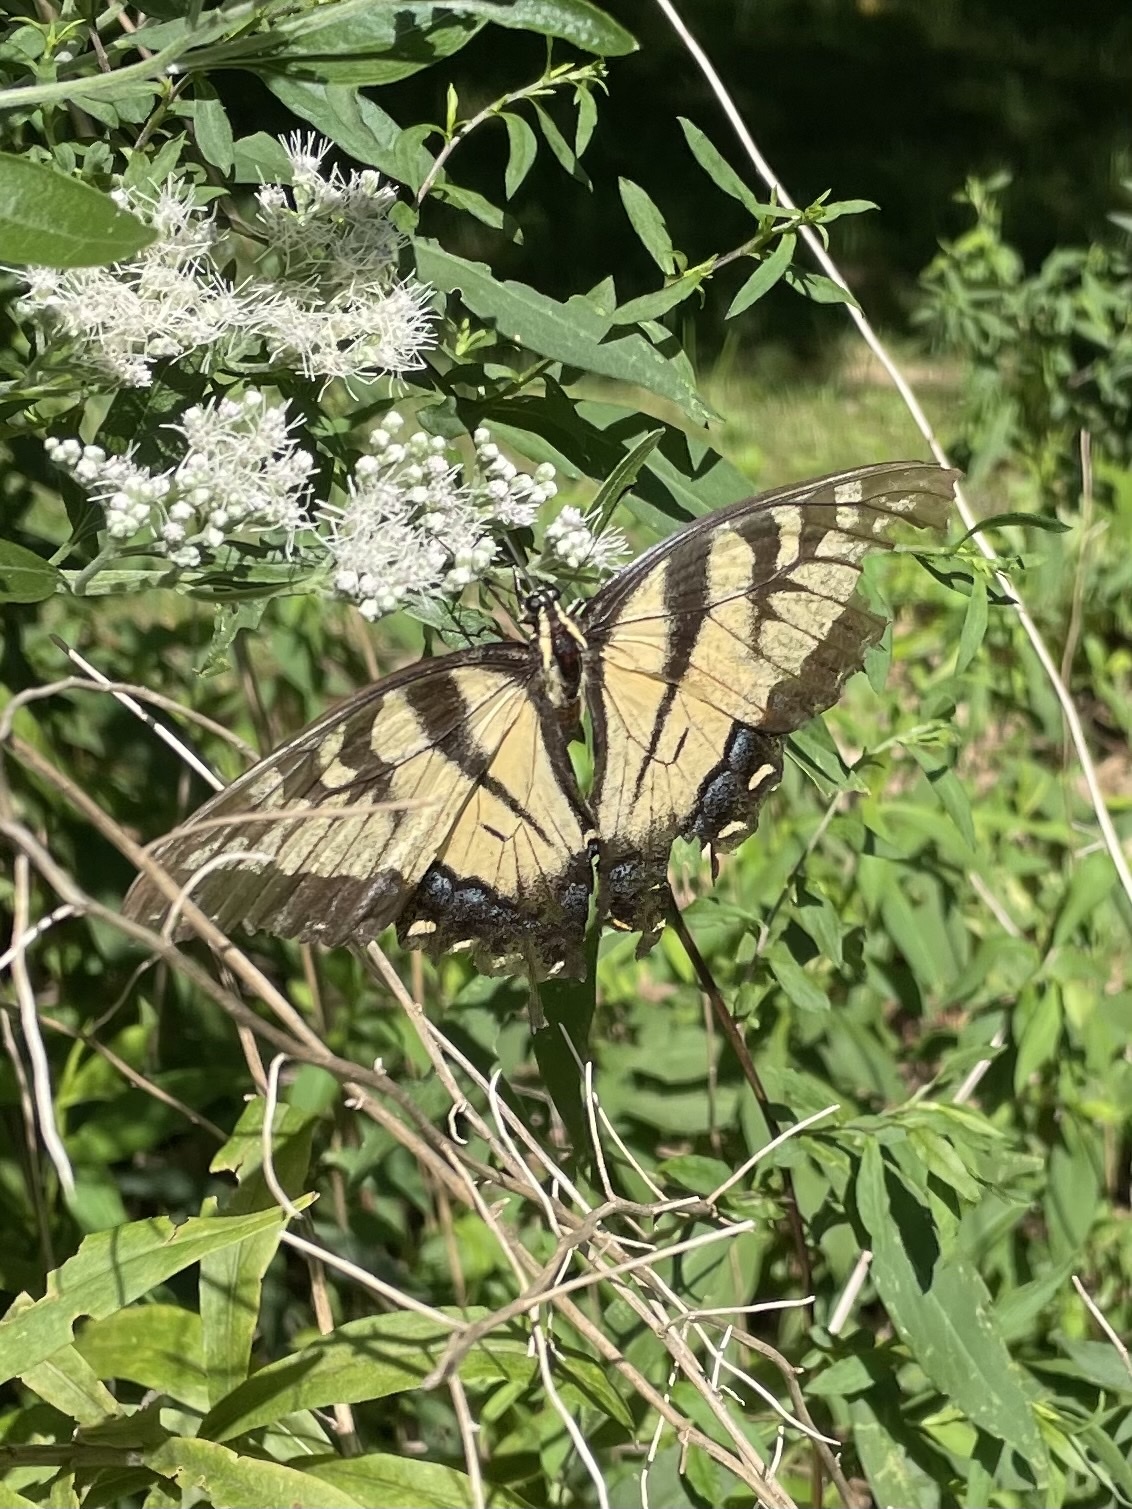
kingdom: Animalia
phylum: Arthropoda
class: Insecta
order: Lepidoptera
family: Papilionidae
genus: Papilio
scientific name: Papilio glaucus
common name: Tiger swallowtail
